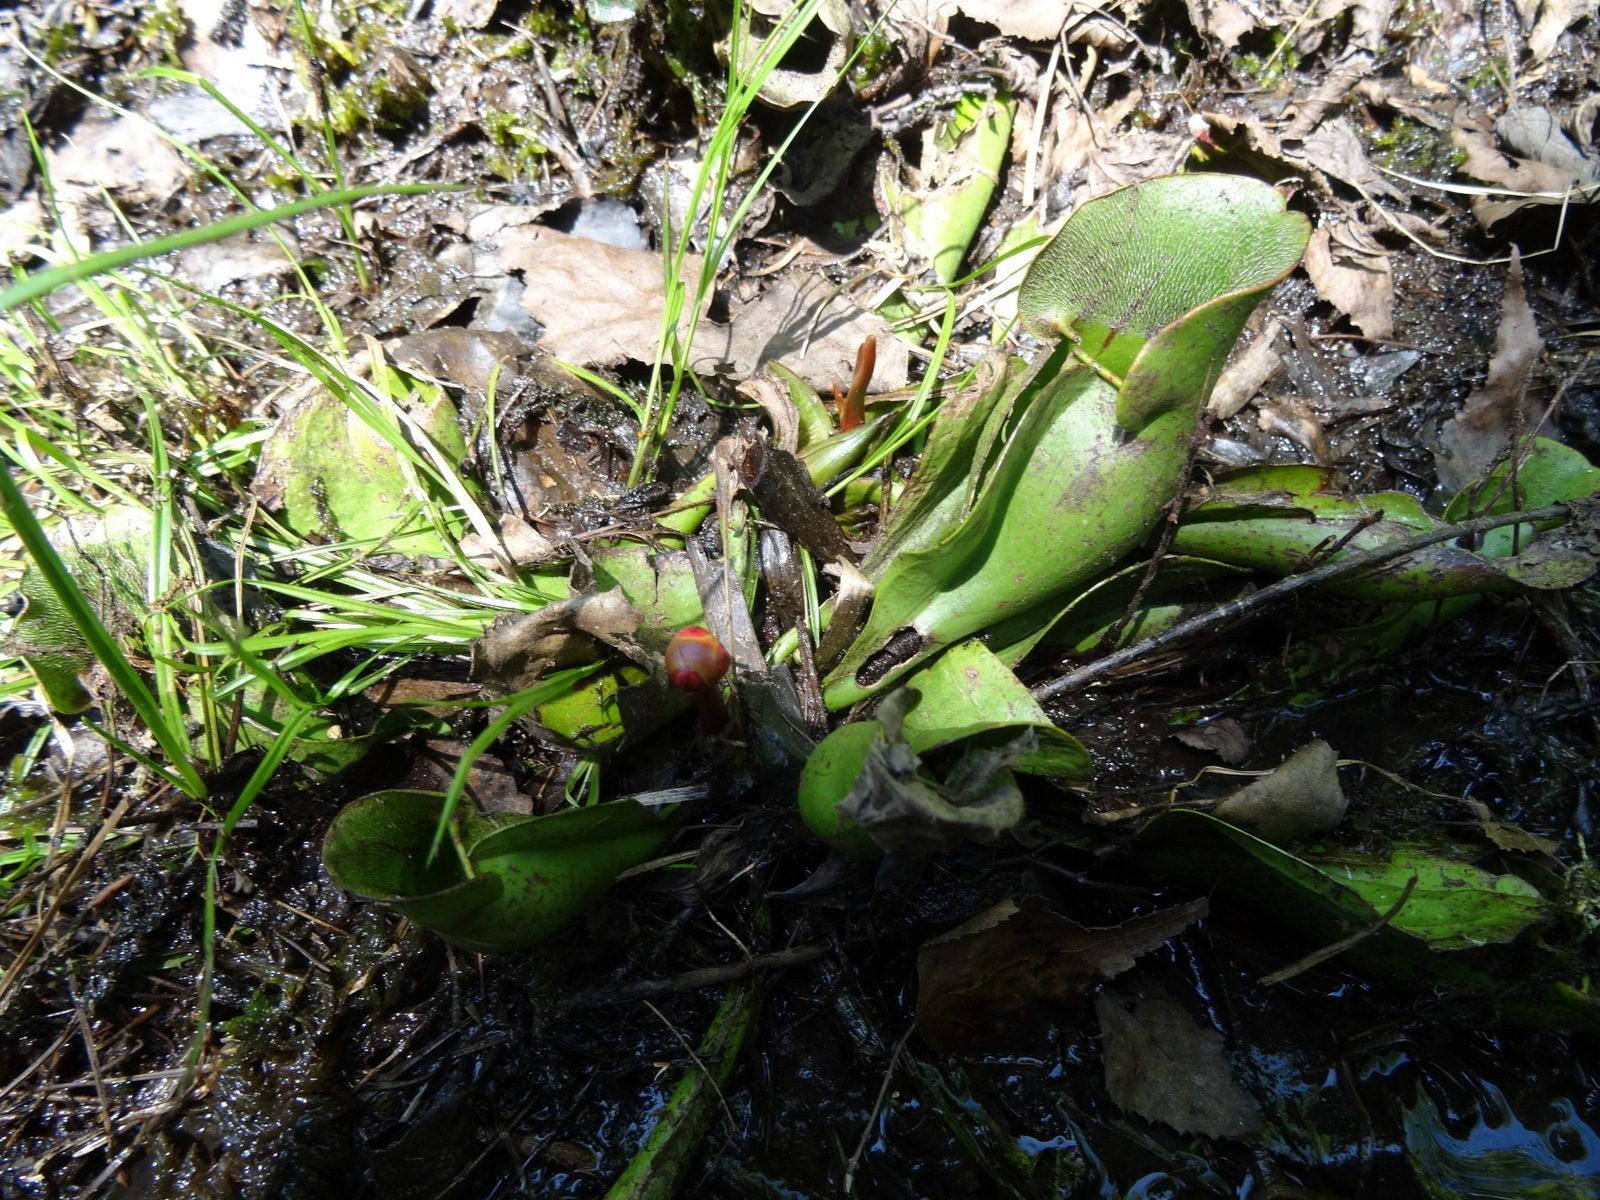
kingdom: Plantae
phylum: Tracheophyta
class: Magnoliopsida
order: Ericales
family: Sarraceniaceae
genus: Sarracenia
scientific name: Sarracenia purpurea
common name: Pitcherplant
